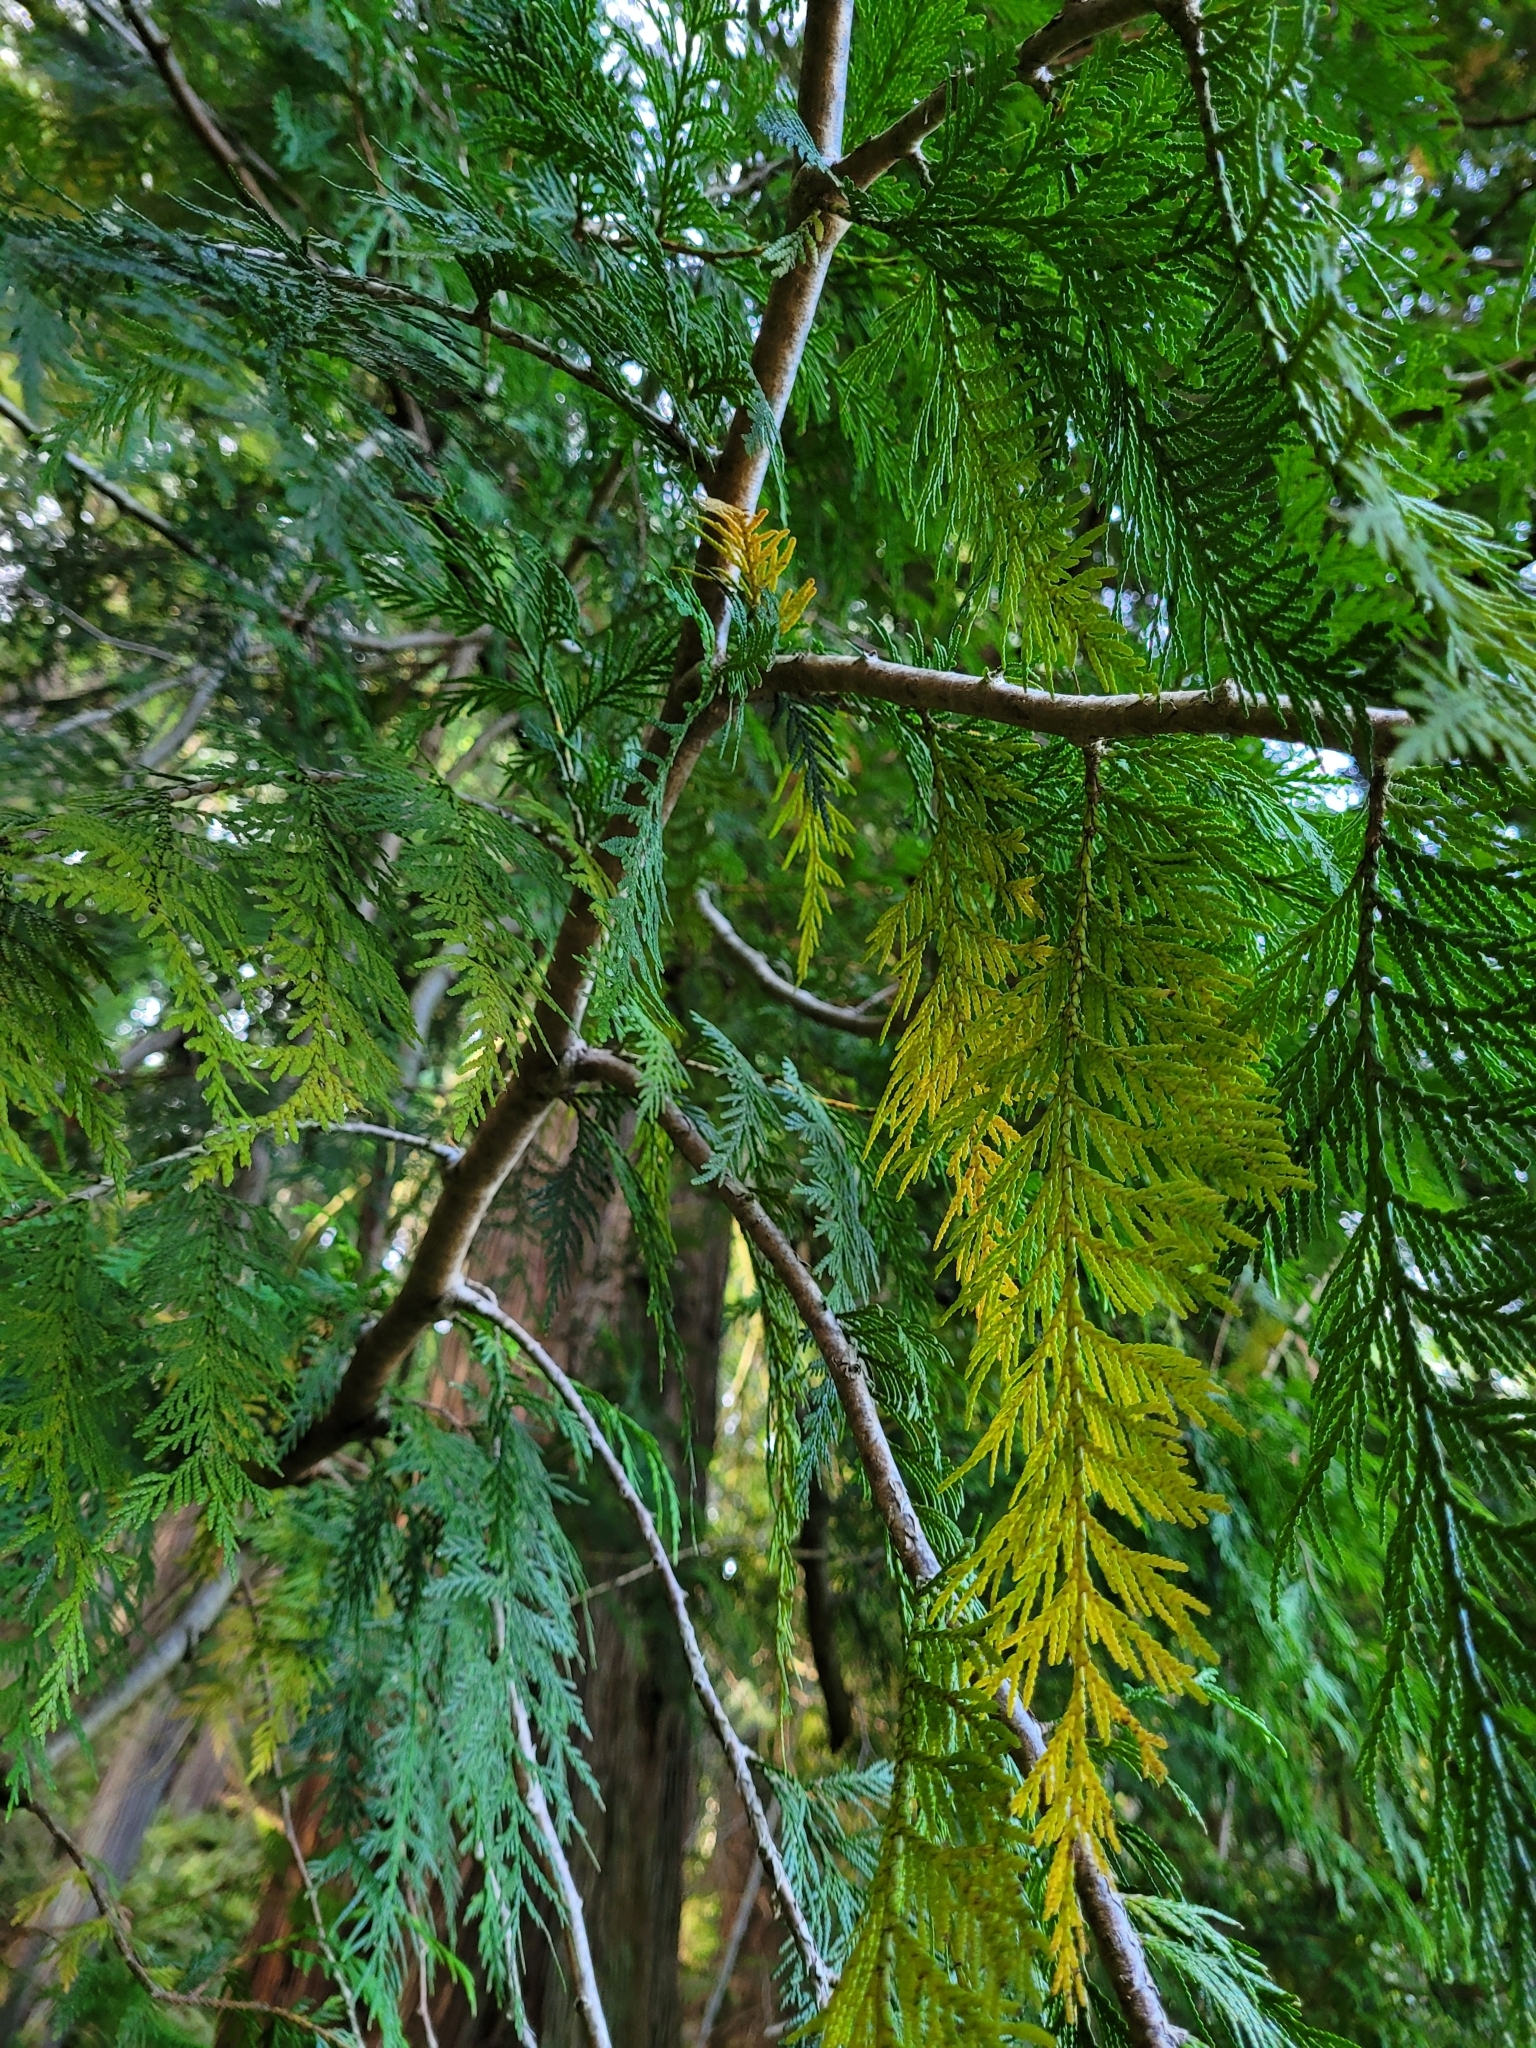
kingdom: Plantae
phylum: Tracheophyta
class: Pinopsida
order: Pinales
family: Cupressaceae
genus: Thuja
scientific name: Thuja plicata
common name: Western red-cedar
